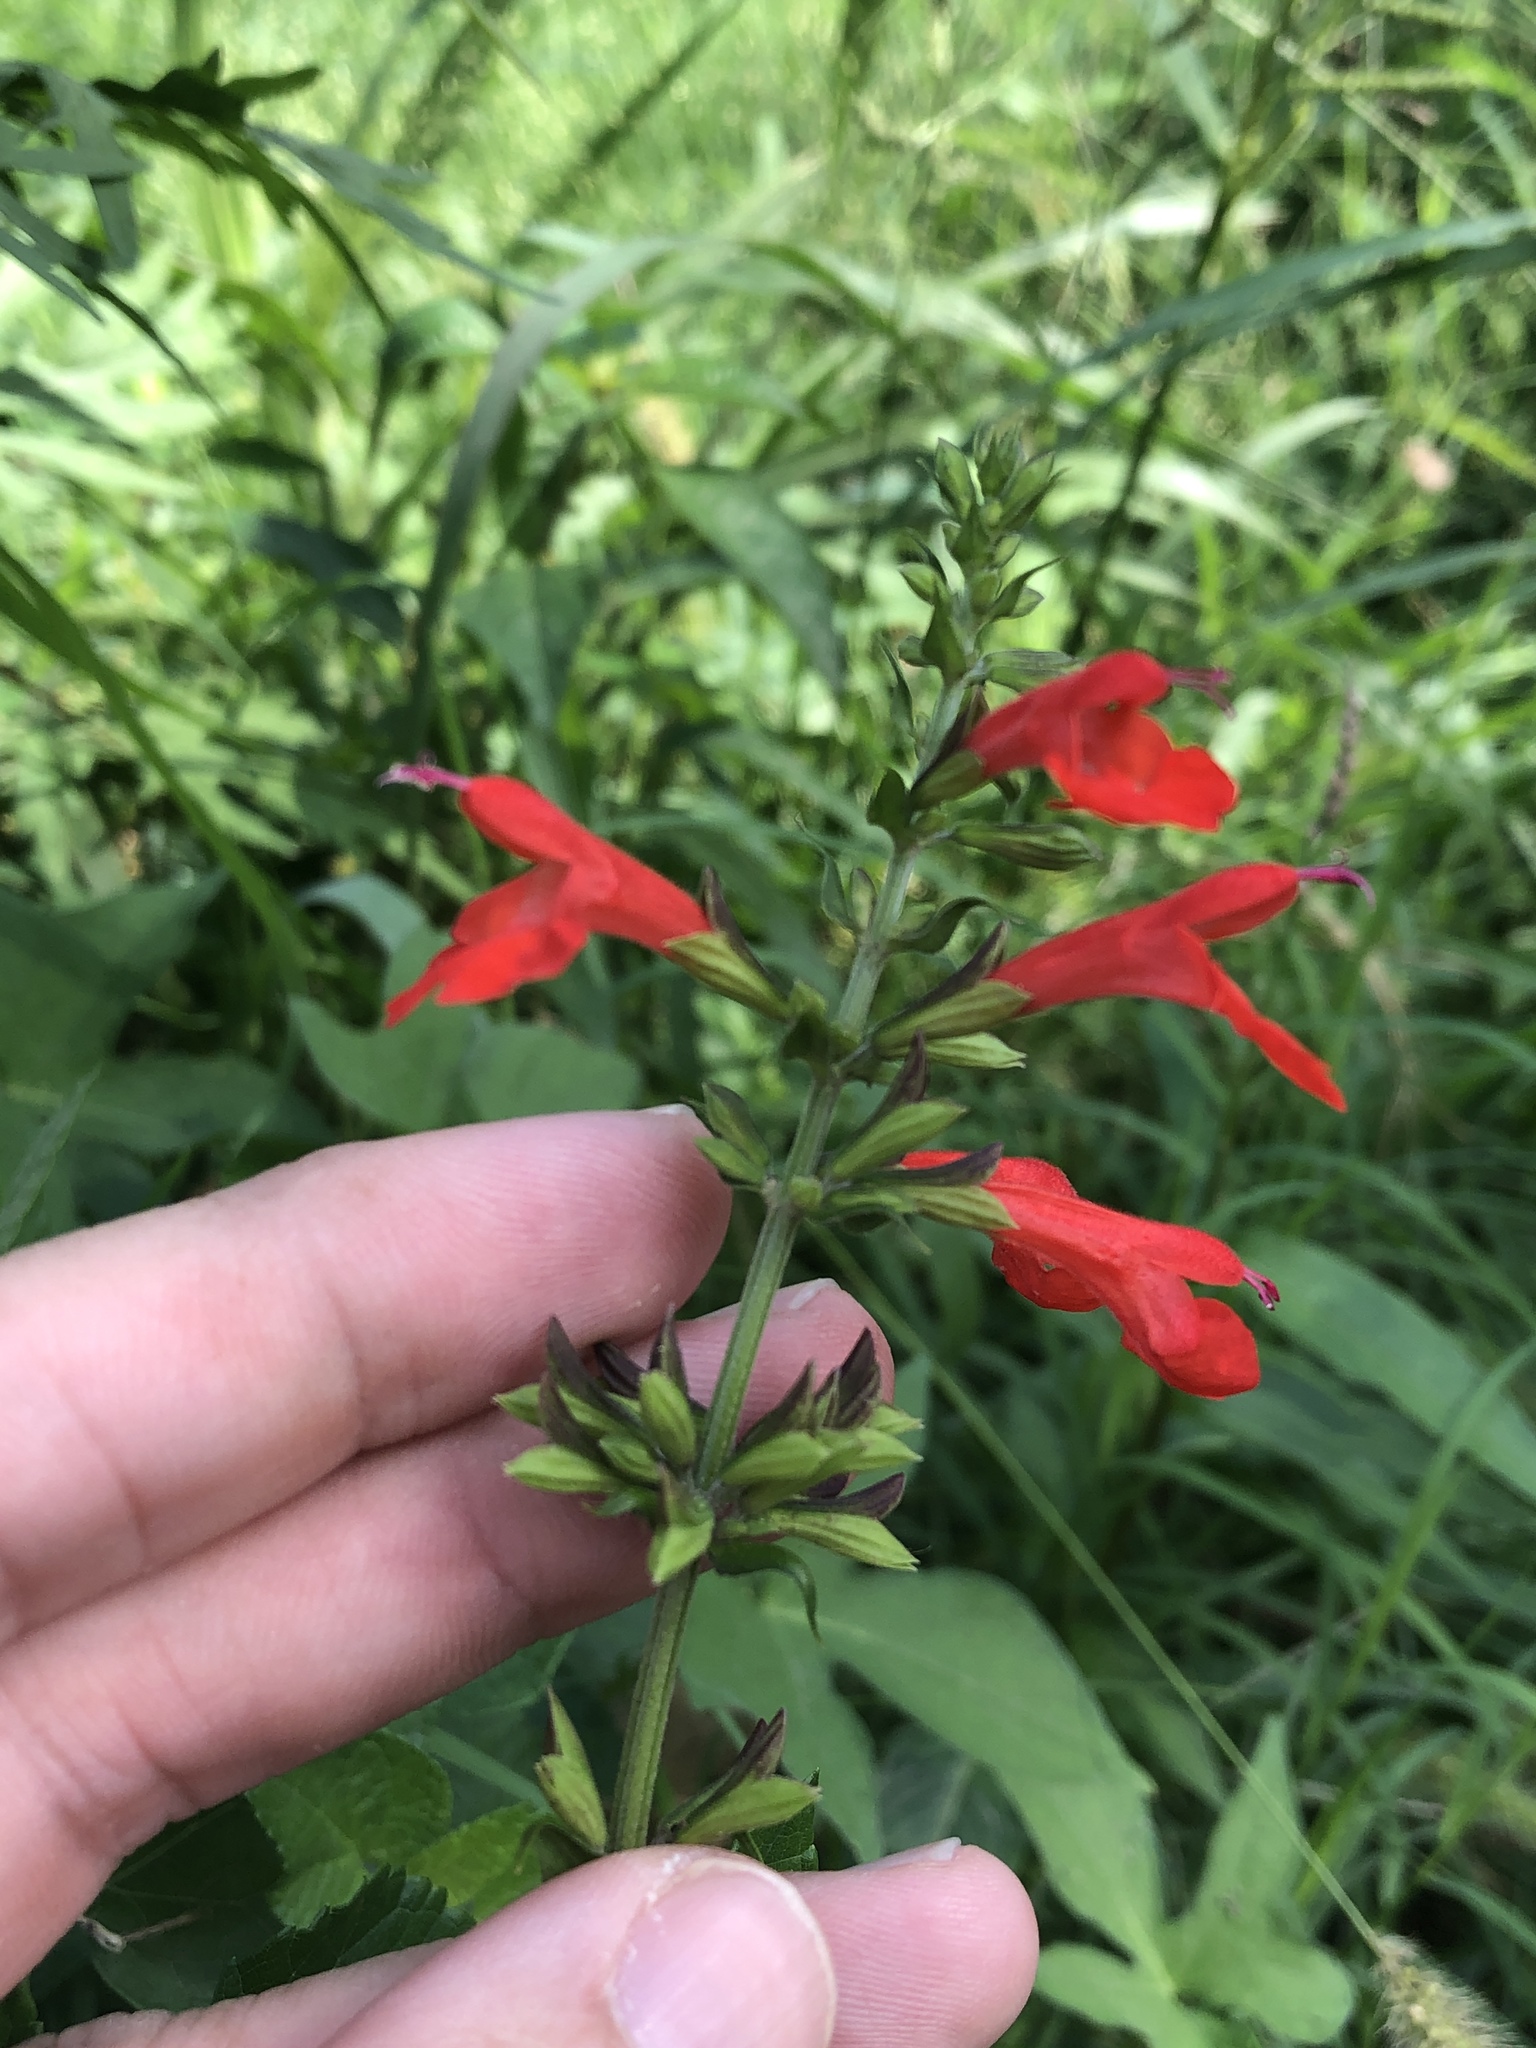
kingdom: Plantae
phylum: Tracheophyta
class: Magnoliopsida
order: Lamiales
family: Lamiaceae
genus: Salvia
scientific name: Salvia coccinea
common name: Blood sage
